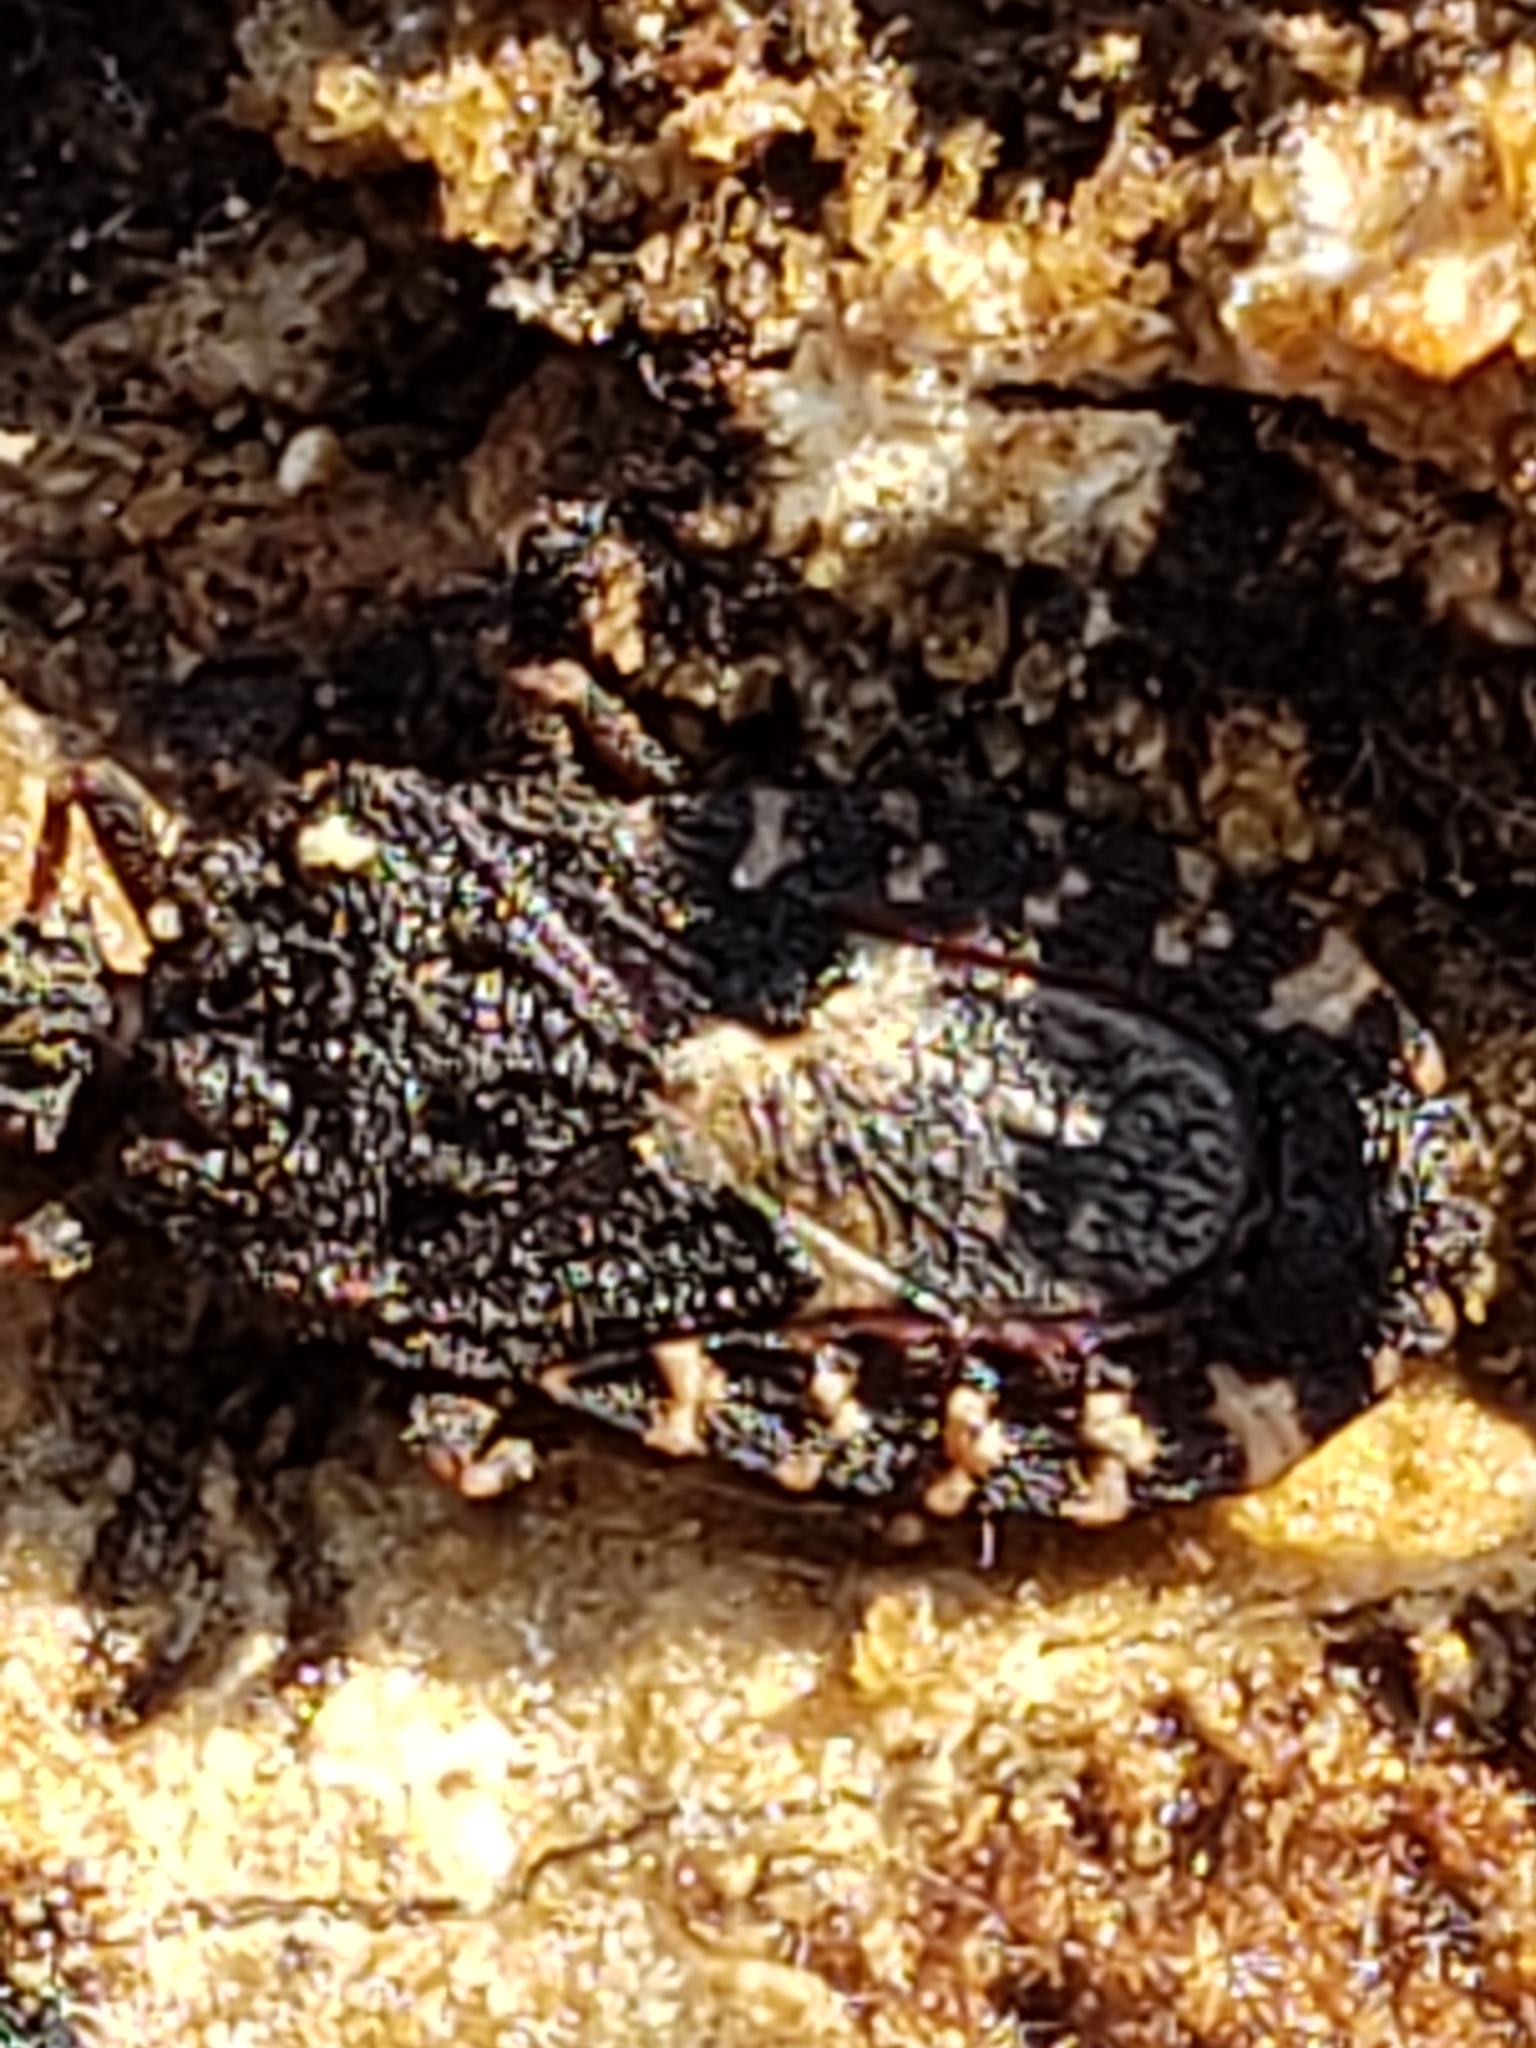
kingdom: Animalia
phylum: Arthropoda
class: Insecta
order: Hemiptera
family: Aradidae
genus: Mezira
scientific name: Mezira
